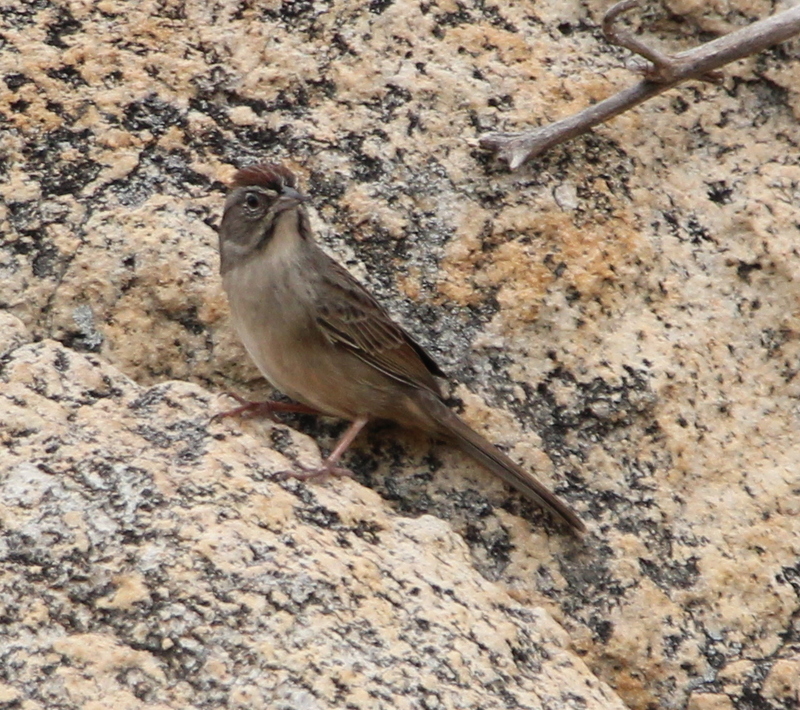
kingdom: Animalia
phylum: Chordata
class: Aves
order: Passeriformes
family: Passerellidae
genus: Aimophila
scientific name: Aimophila ruficeps
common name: Rufous-crowned sparrow
